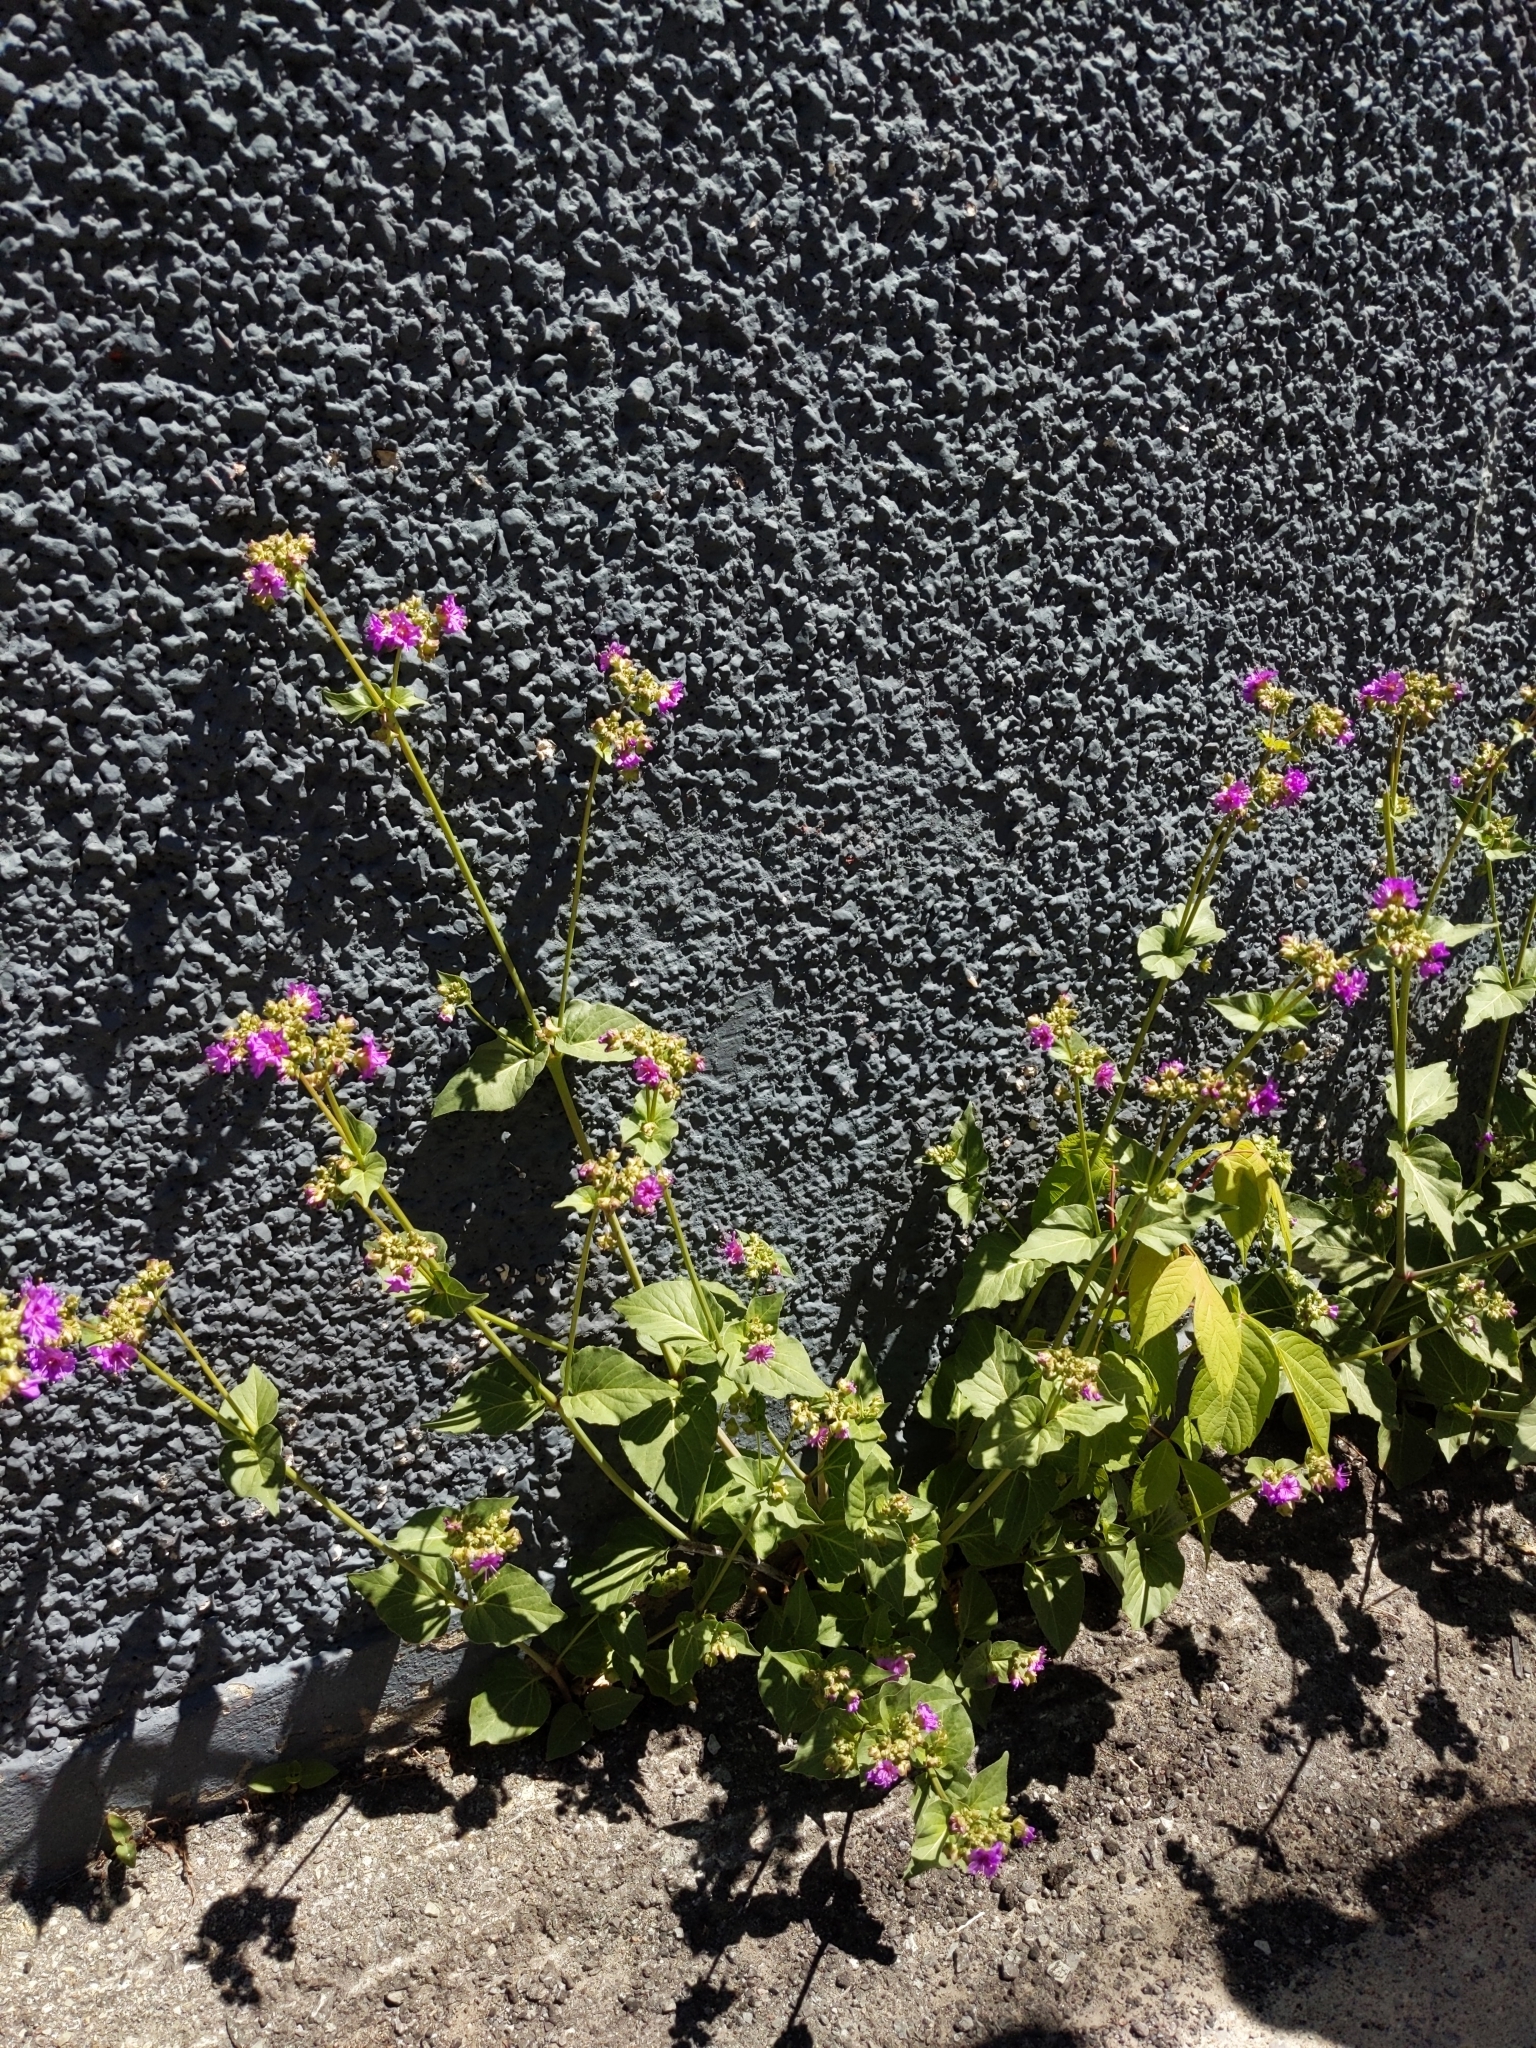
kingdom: Plantae
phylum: Tracheophyta
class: Magnoliopsida
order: Caryophyllales
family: Nyctaginaceae
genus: Mirabilis
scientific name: Mirabilis nyctaginea
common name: Umbrella wort
